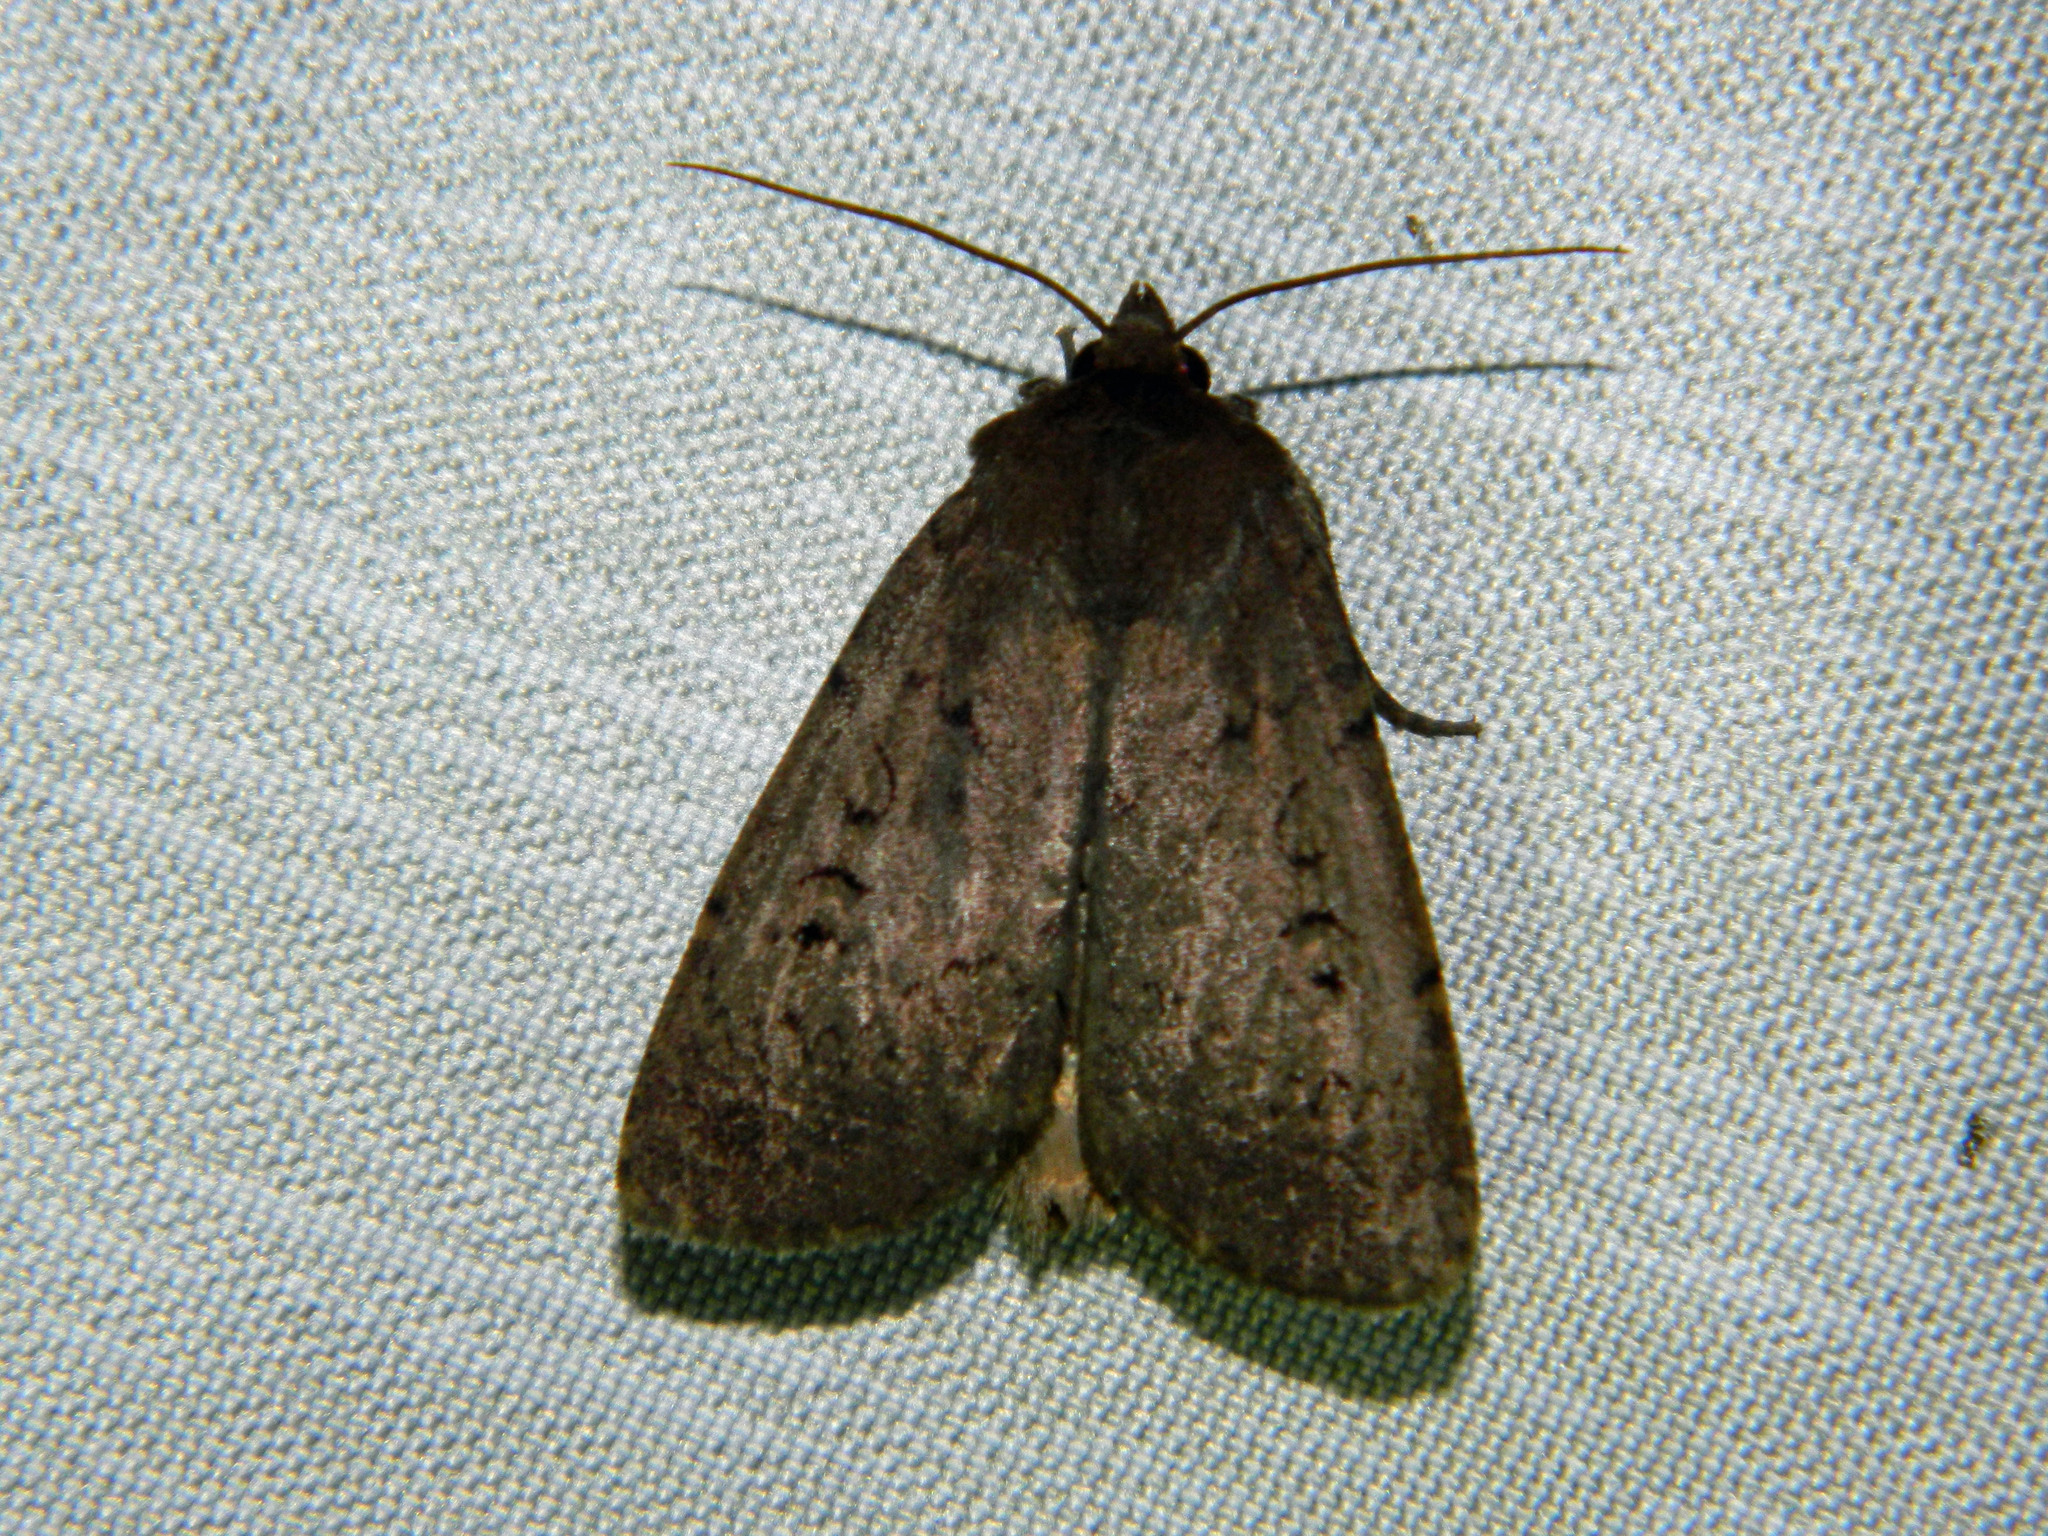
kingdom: Animalia
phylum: Arthropoda
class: Insecta
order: Lepidoptera
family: Noctuidae
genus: Graphiphora
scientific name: Graphiphora augur
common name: Double dart
